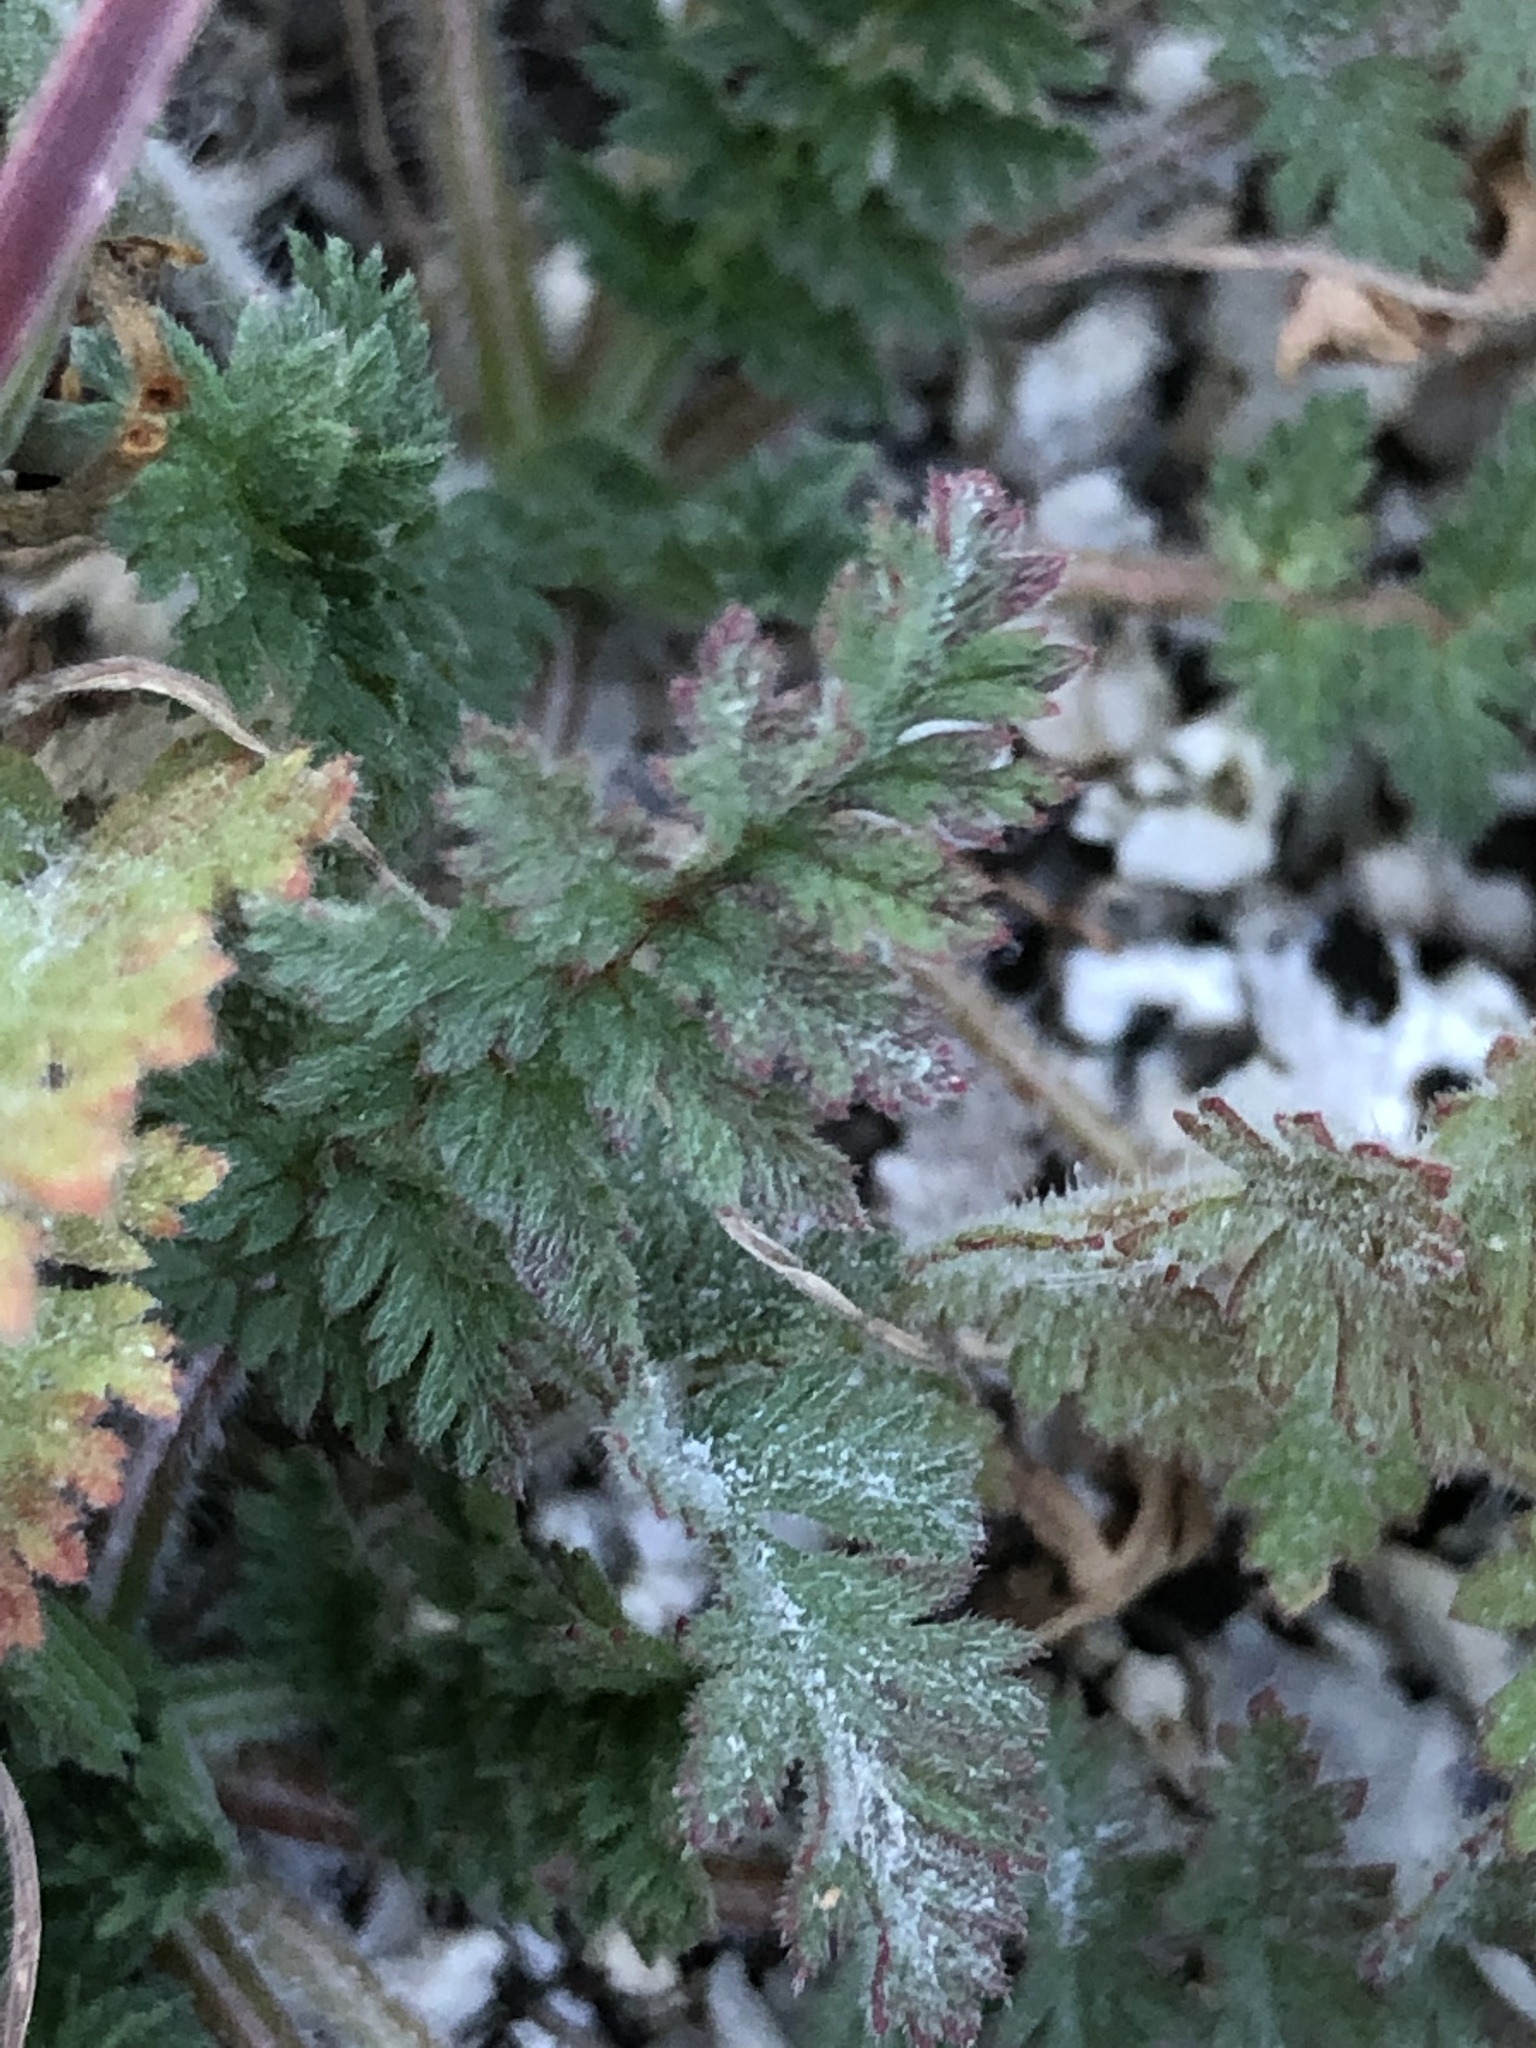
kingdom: Plantae
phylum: Tracheophyta
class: Magnoliopsida
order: Geraniales
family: Geraniaceae
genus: Erodium
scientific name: Erodium cicutarium
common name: Common stork's-bill
